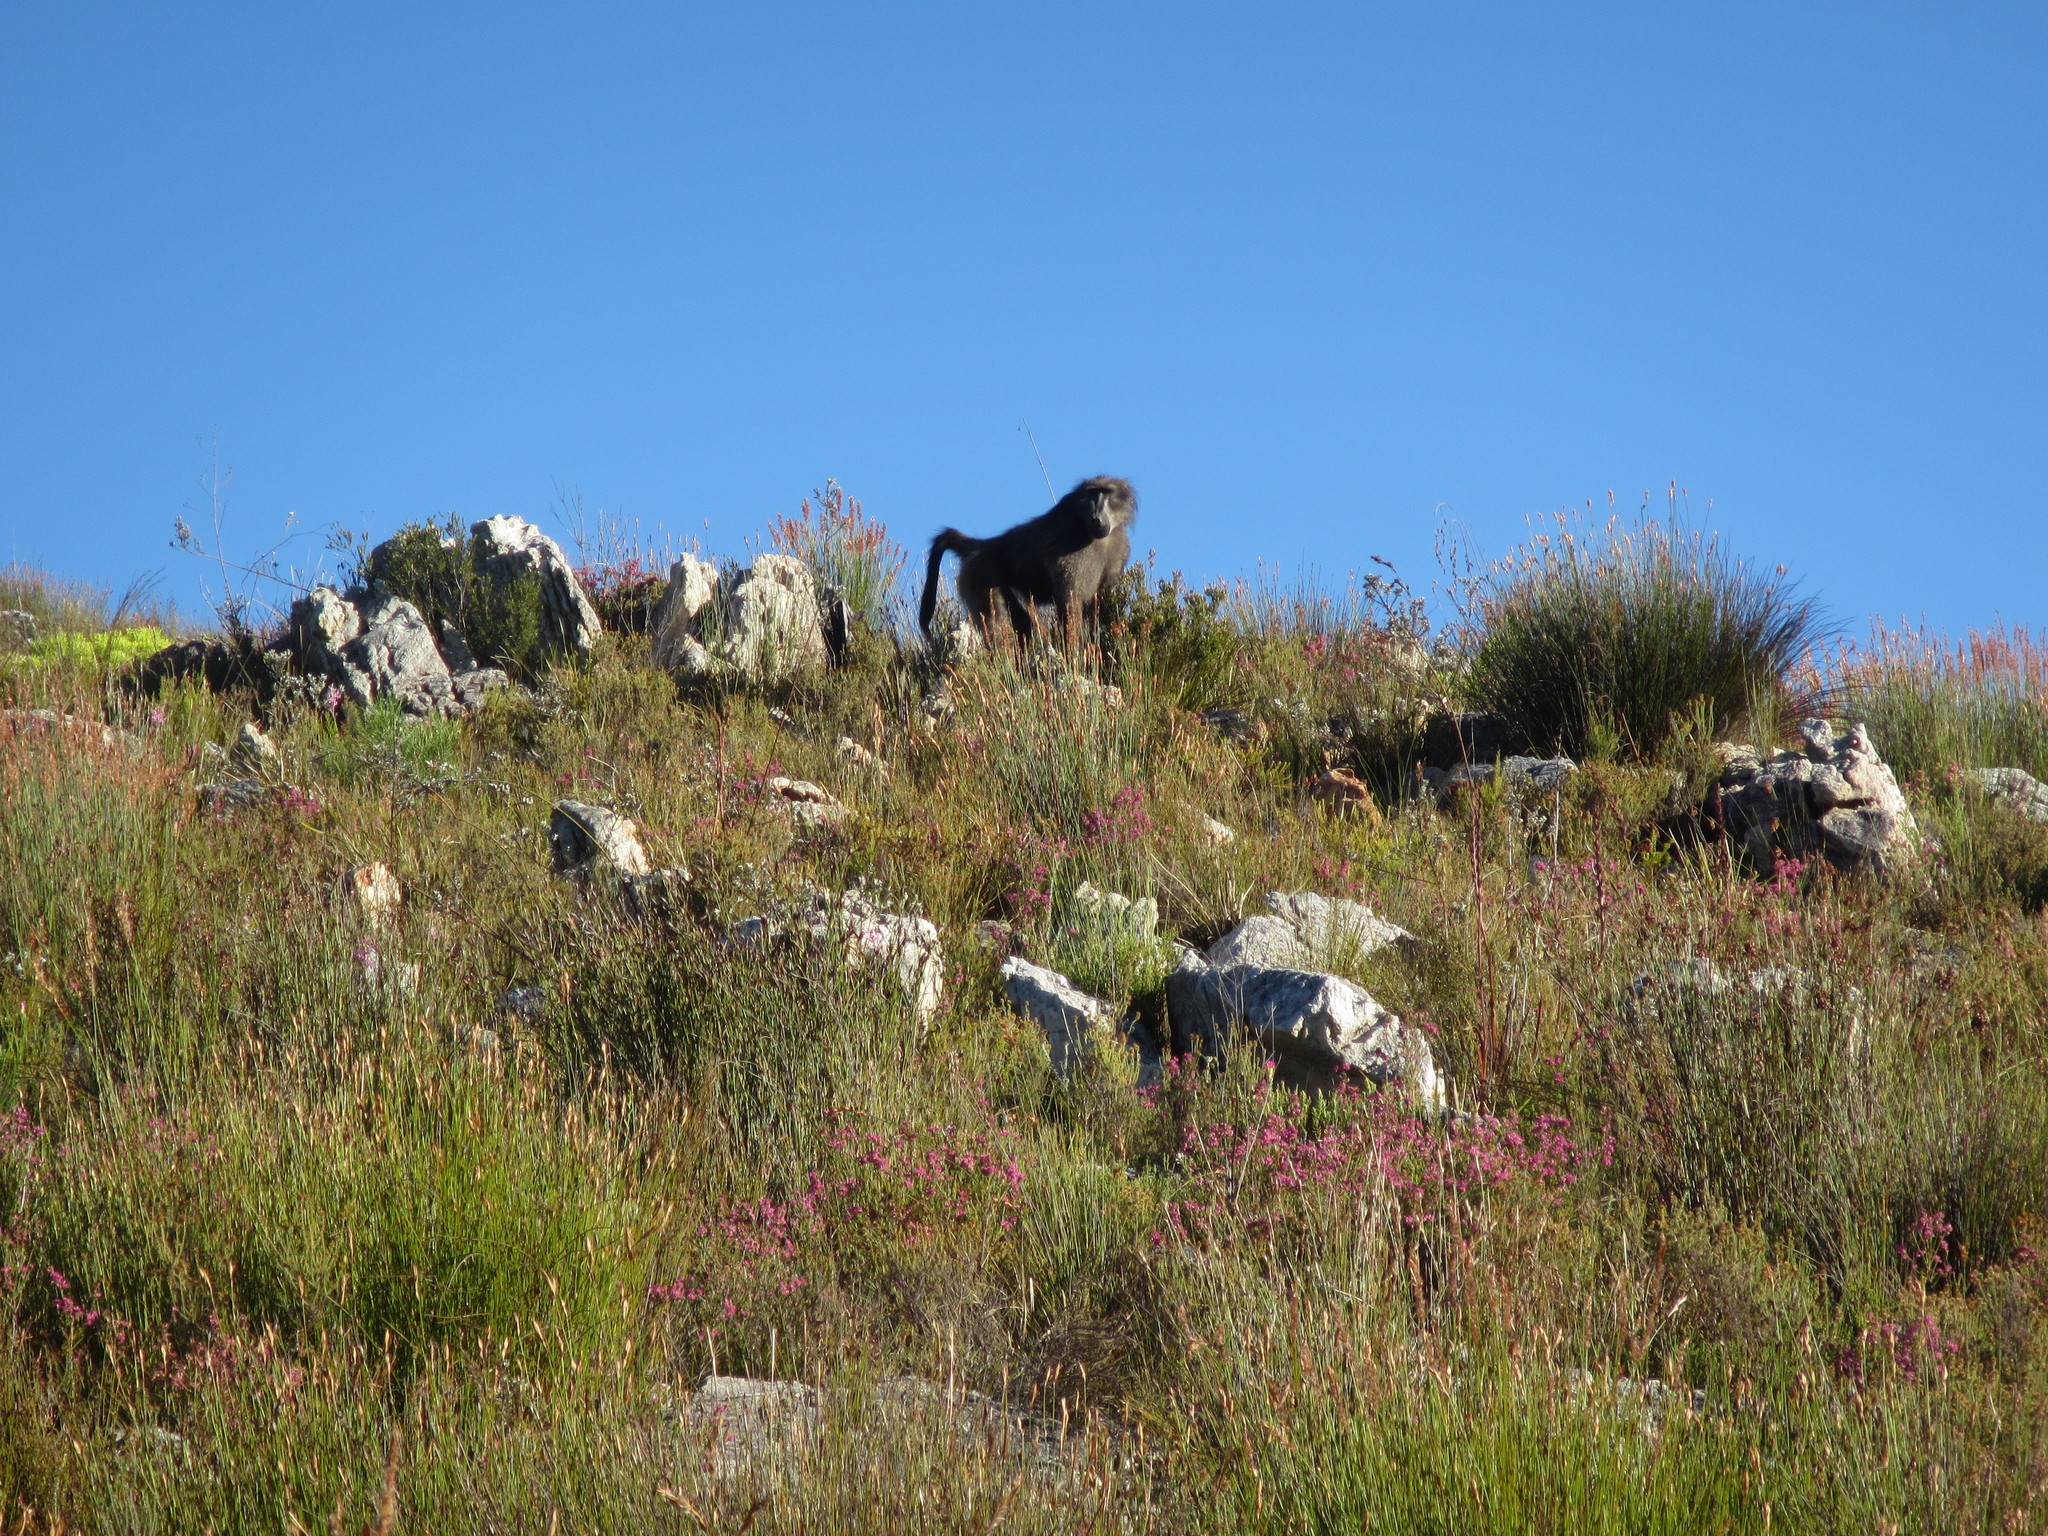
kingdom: Animalia
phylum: Chordata
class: Mammalia
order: Primates
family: Cercopithecidae
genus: Papio
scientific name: Papio ursinus
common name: Chacma baboon
